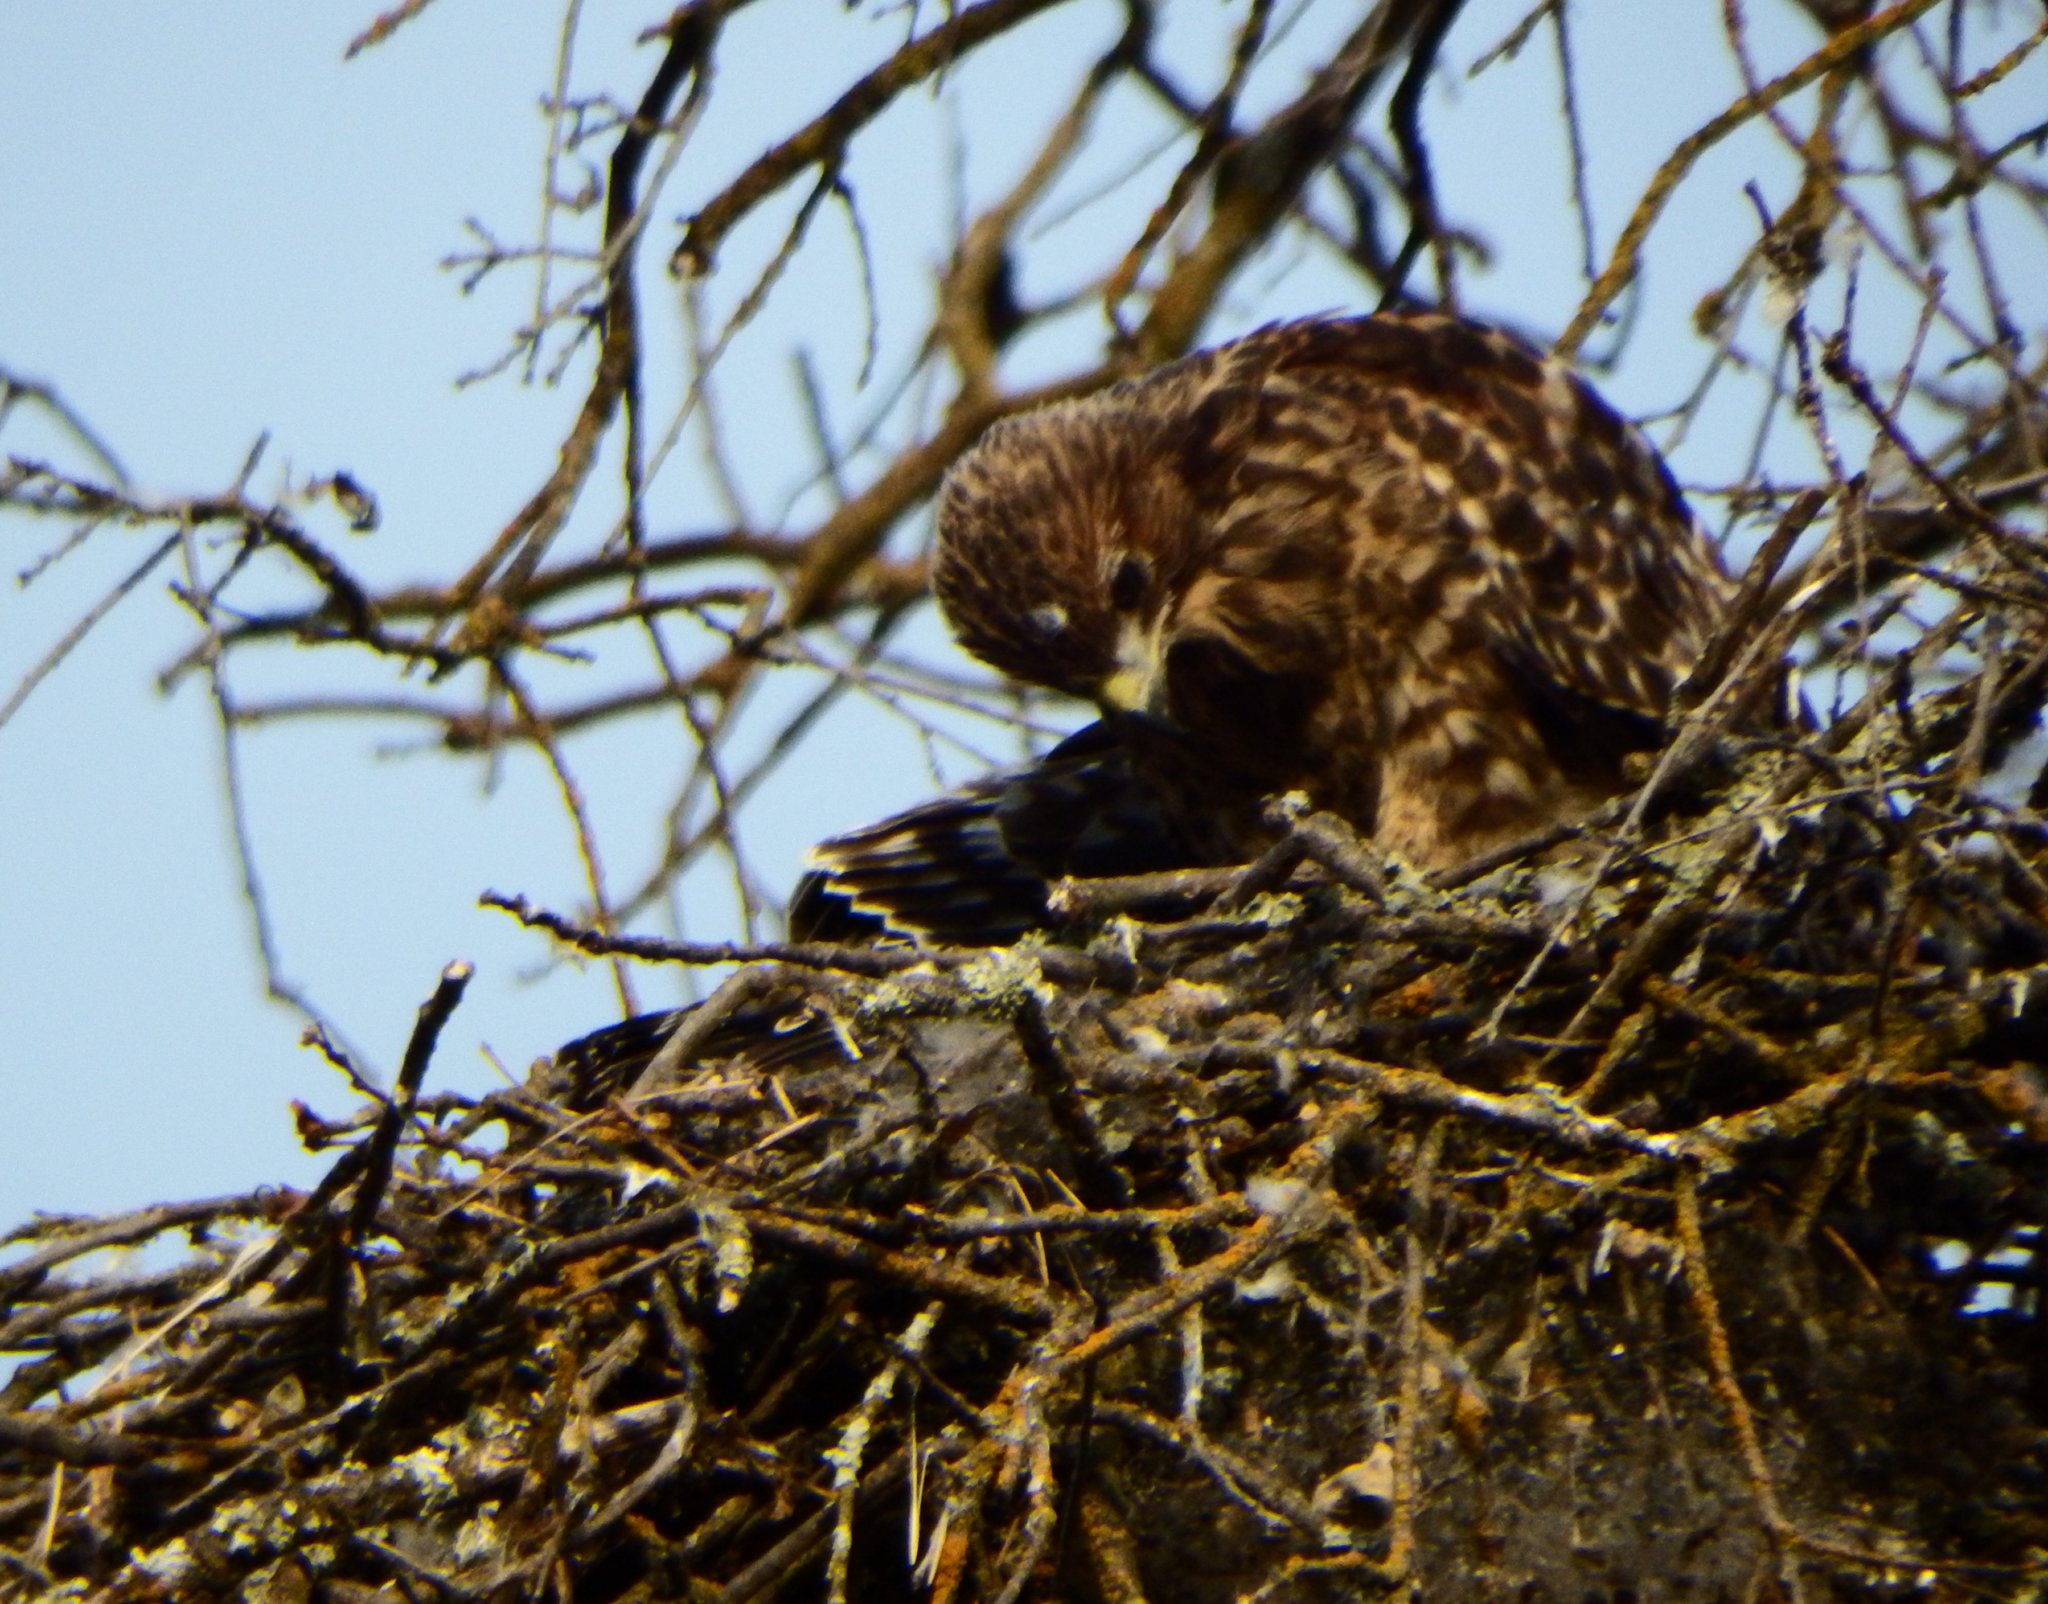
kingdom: Animalia
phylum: Chordata
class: Aves
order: Accipitriformes
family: Accipitridae
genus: Buteo
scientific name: Buteo lineatus
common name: Red-shouldered hawk
